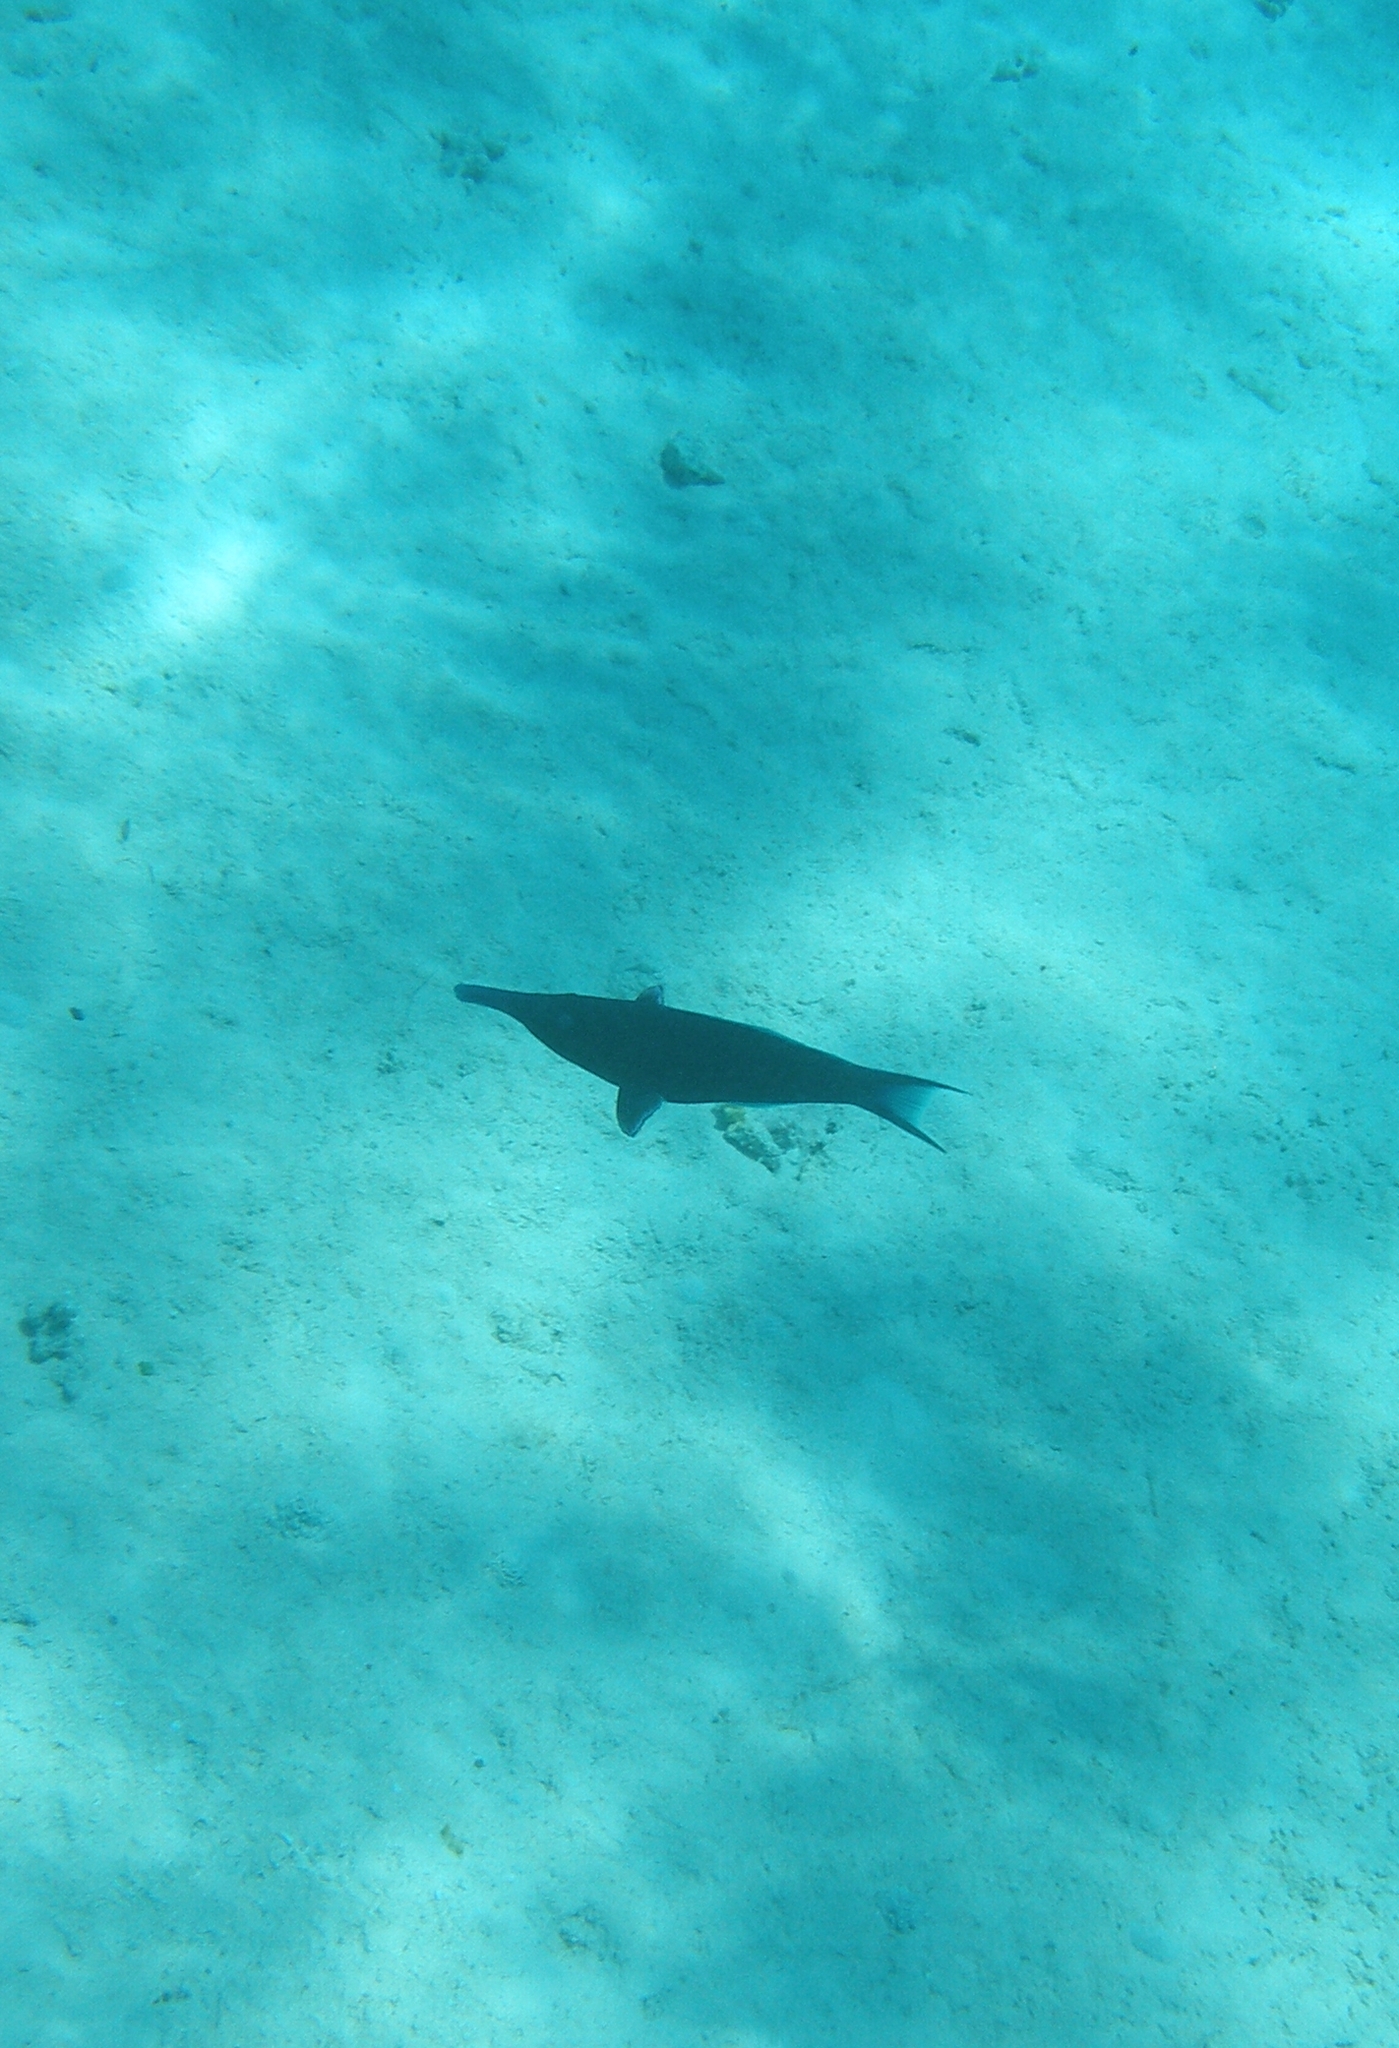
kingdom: Animalia
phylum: Chordata
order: Perciformes
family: Labridae
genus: Gomphosus
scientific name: Gomphosus klunzingeri
